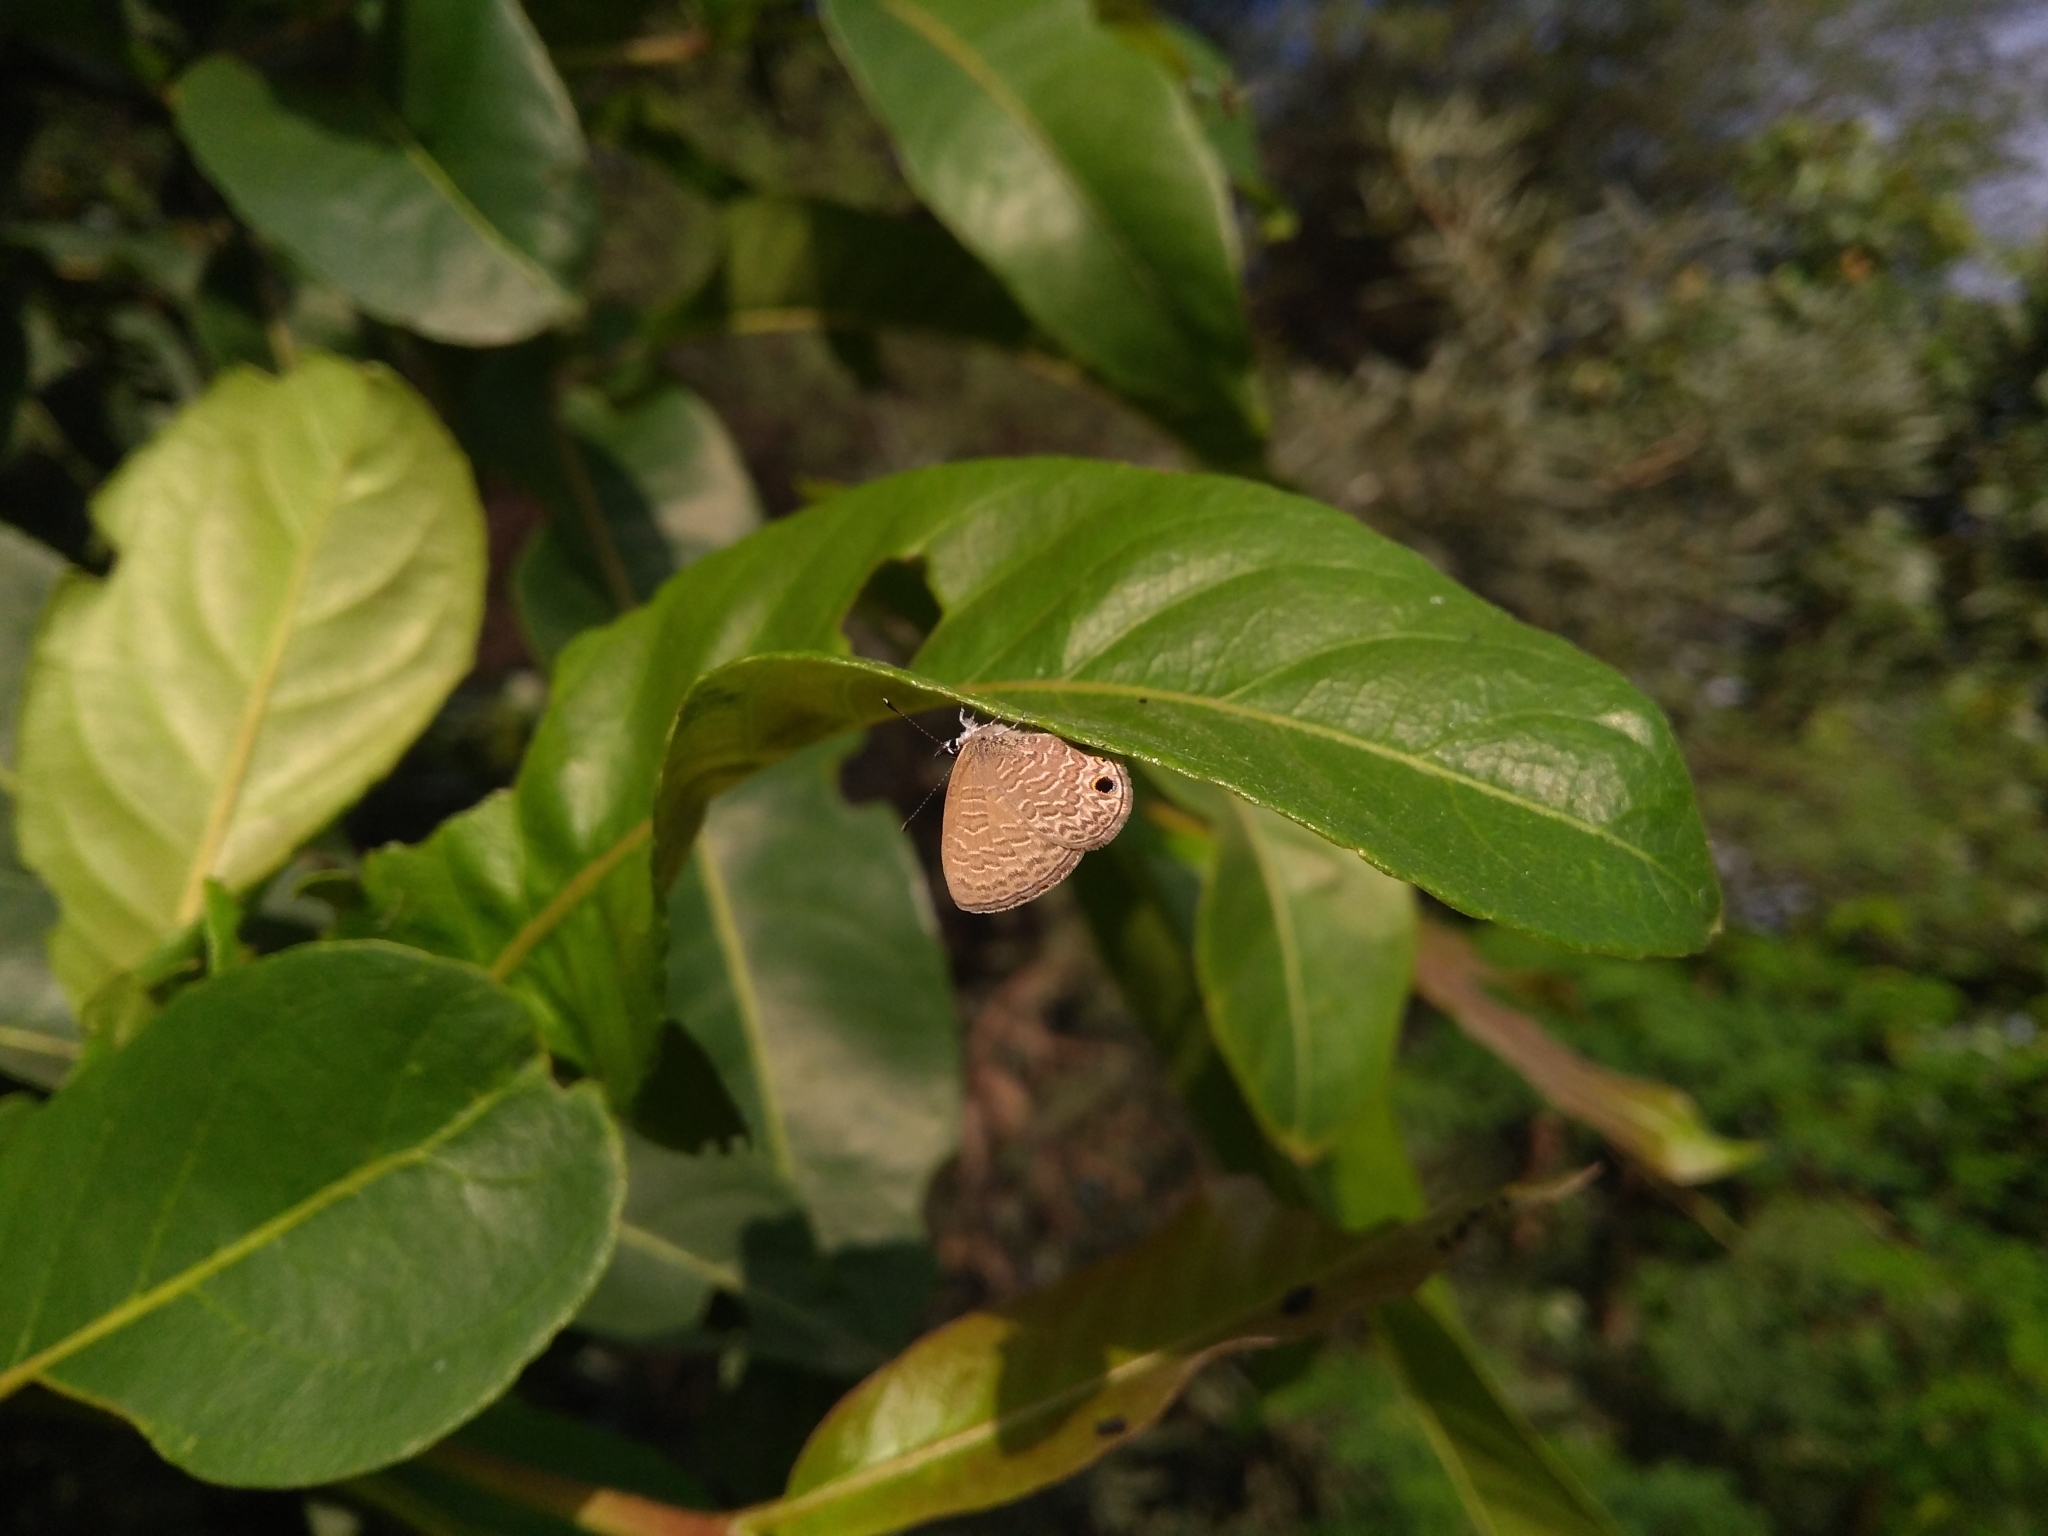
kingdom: Animalia
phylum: Arthropoda
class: Insecta
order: Lepidoptera
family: Lycaenidae
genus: Prosotas
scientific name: Prosotas dubiosa
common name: Tailless lineblue
